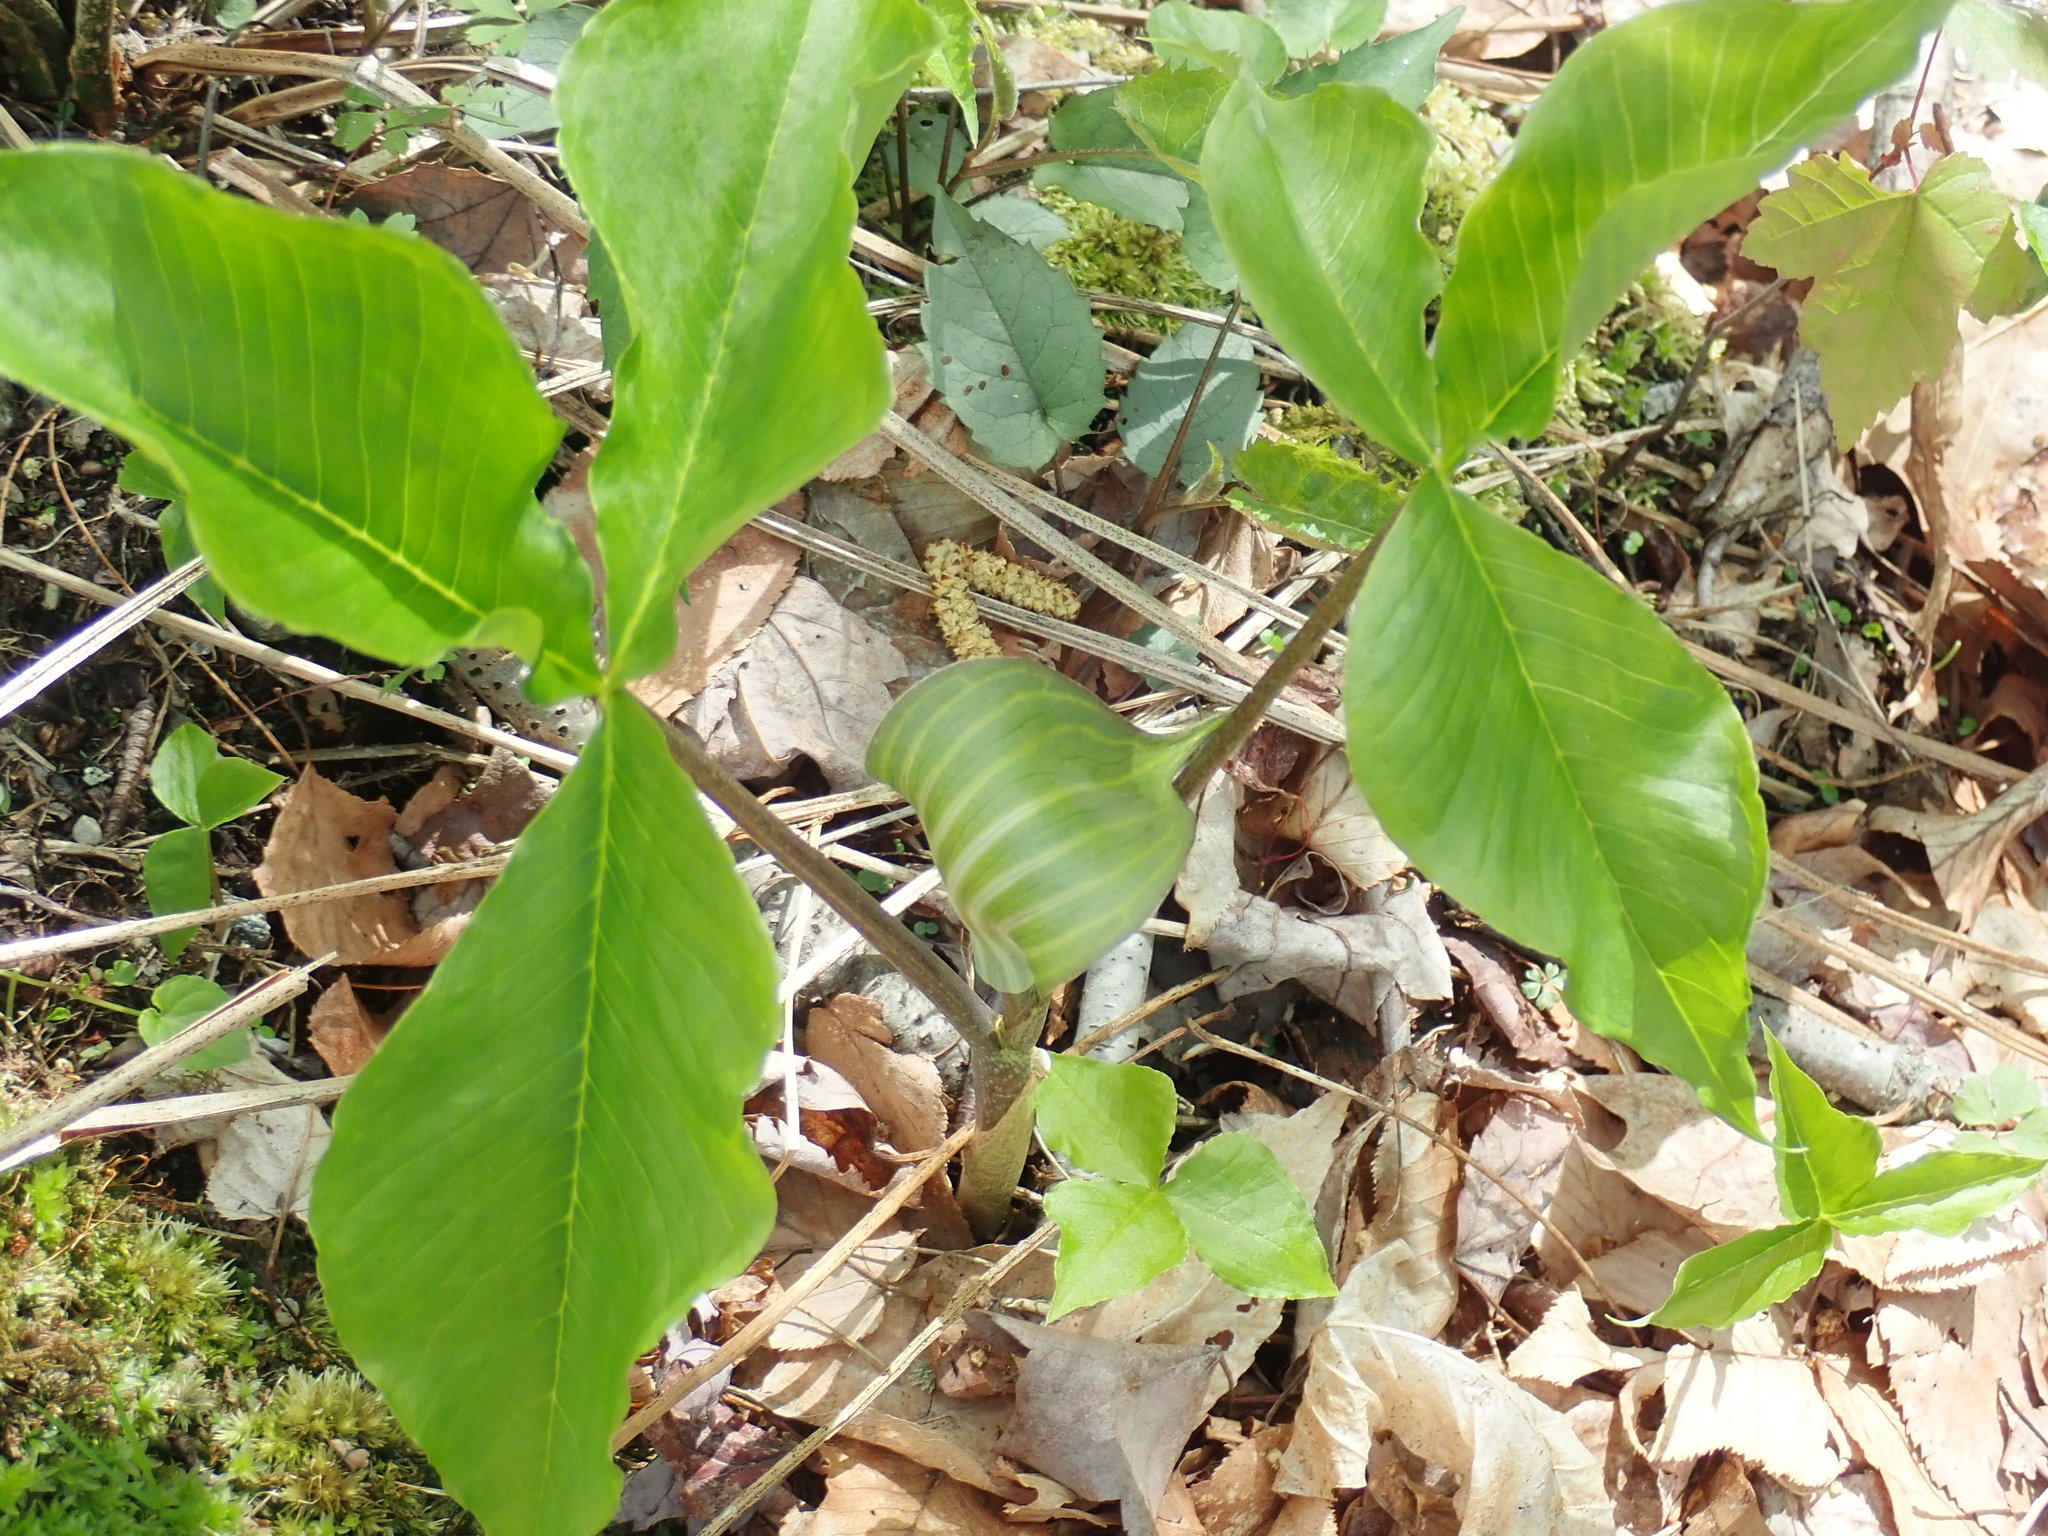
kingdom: Plantae
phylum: Tracheophyta
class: Liliopsida
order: Alismatales
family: Araceae
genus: Arisaema
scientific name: Arisaema triphyllum
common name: Jack-in-the-pulpit
